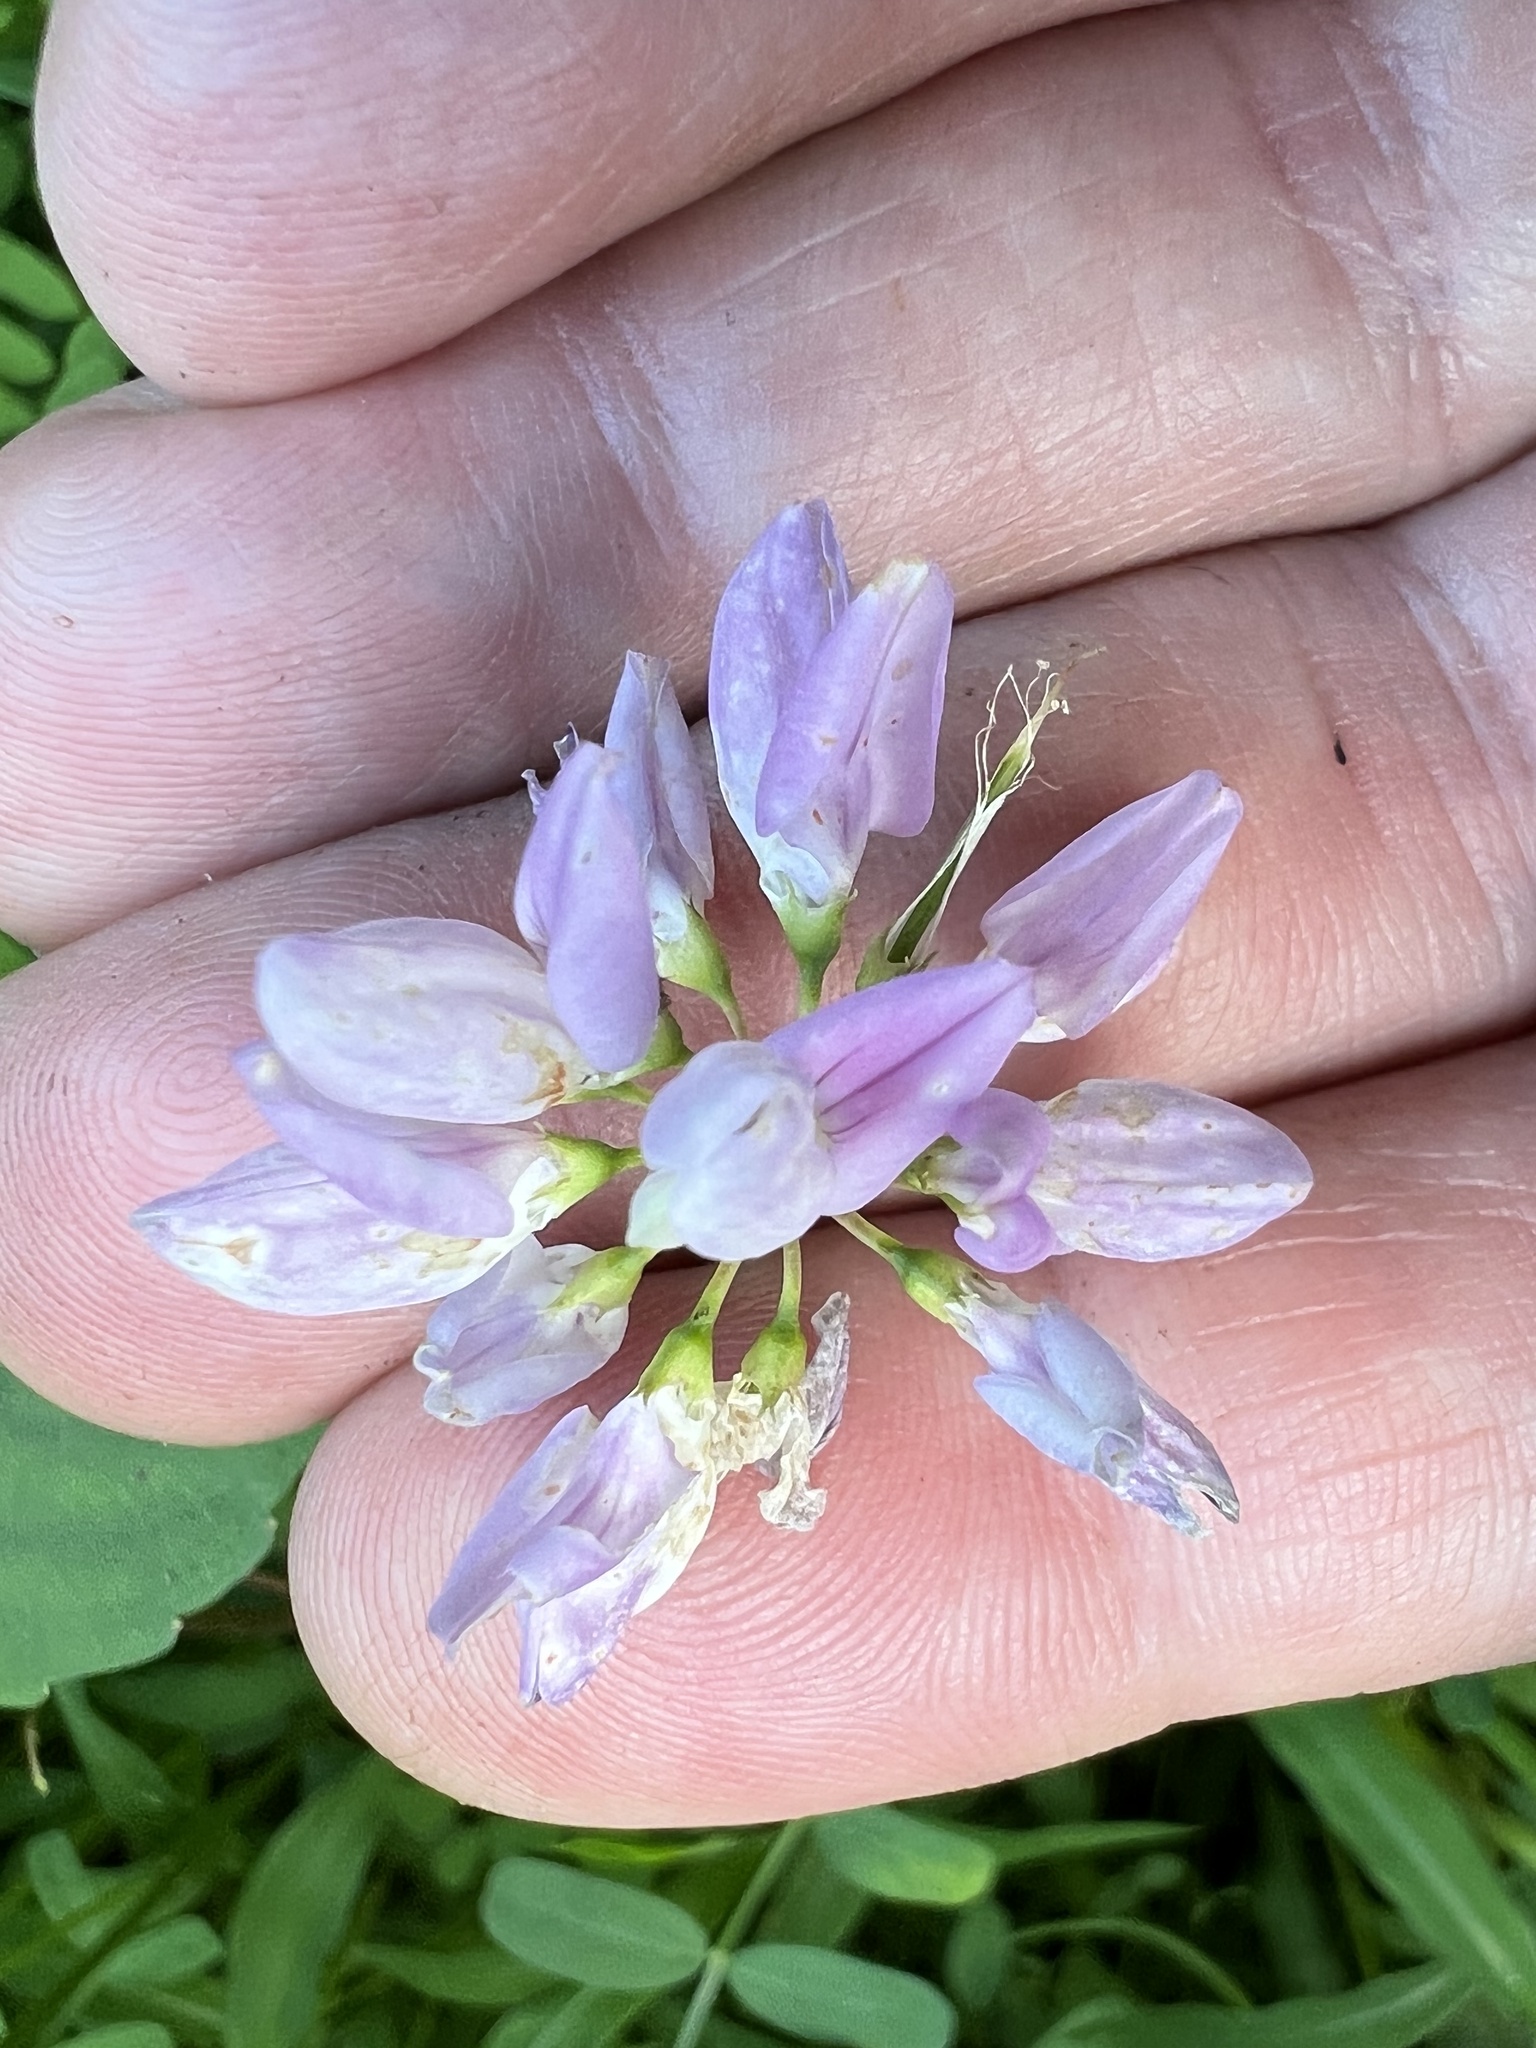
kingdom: Plantae
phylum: Tracheophyta
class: Magnoliopsida
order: Fabales
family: Fabaceae
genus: Coronilla
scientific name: Coronilla varia
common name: Crownvetch
